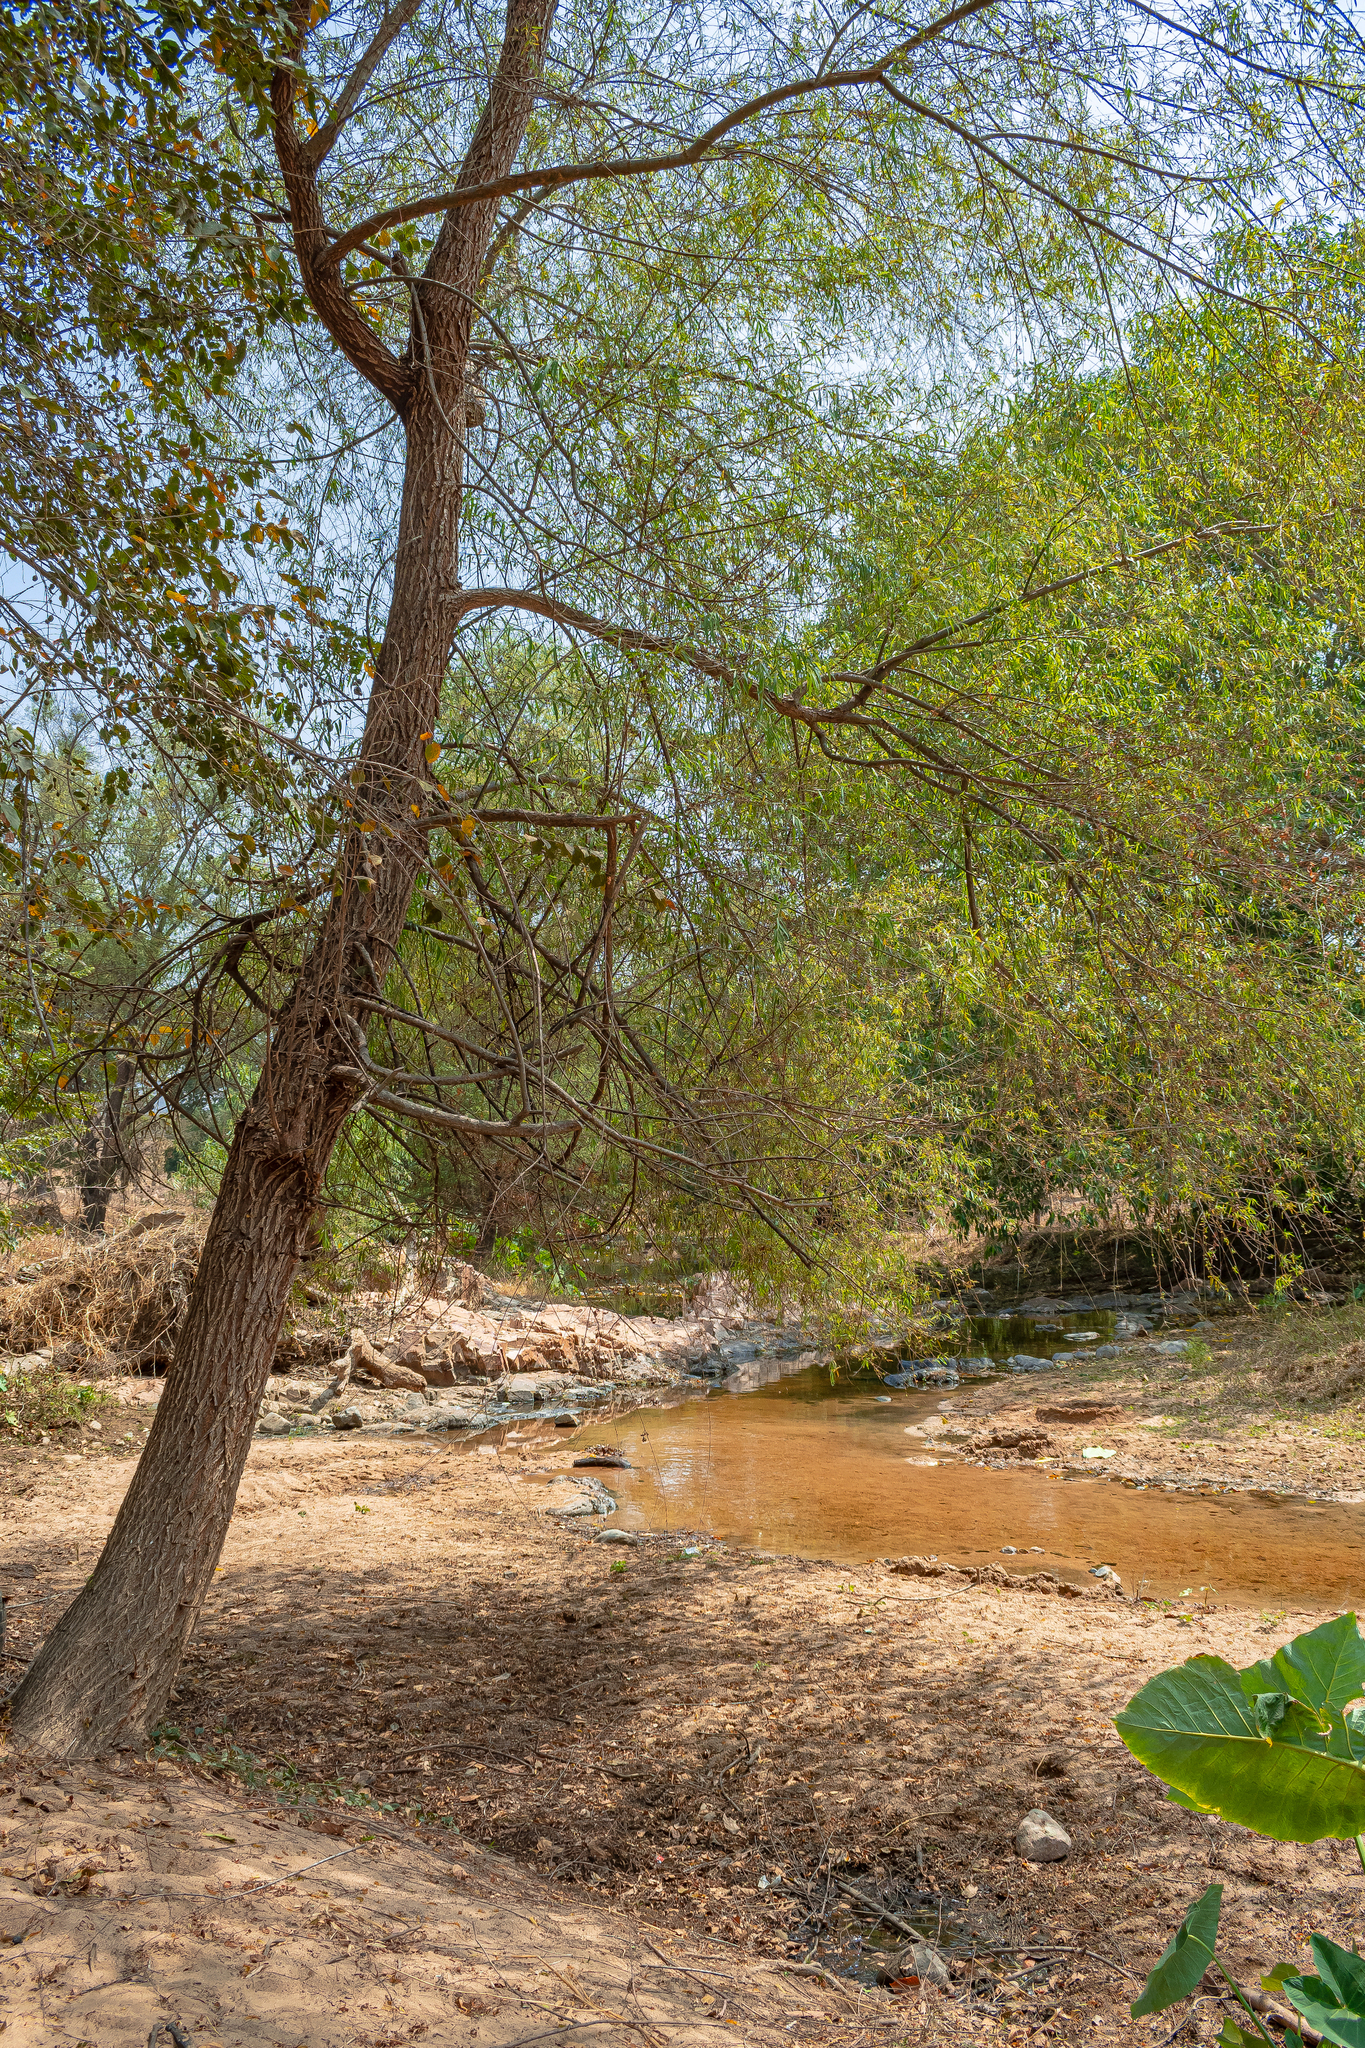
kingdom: Plantae
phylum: Tracheophyta
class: Magnoliopsida
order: Malpighiales
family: Salicaceae
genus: Salix
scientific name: Salix humboldtiana
